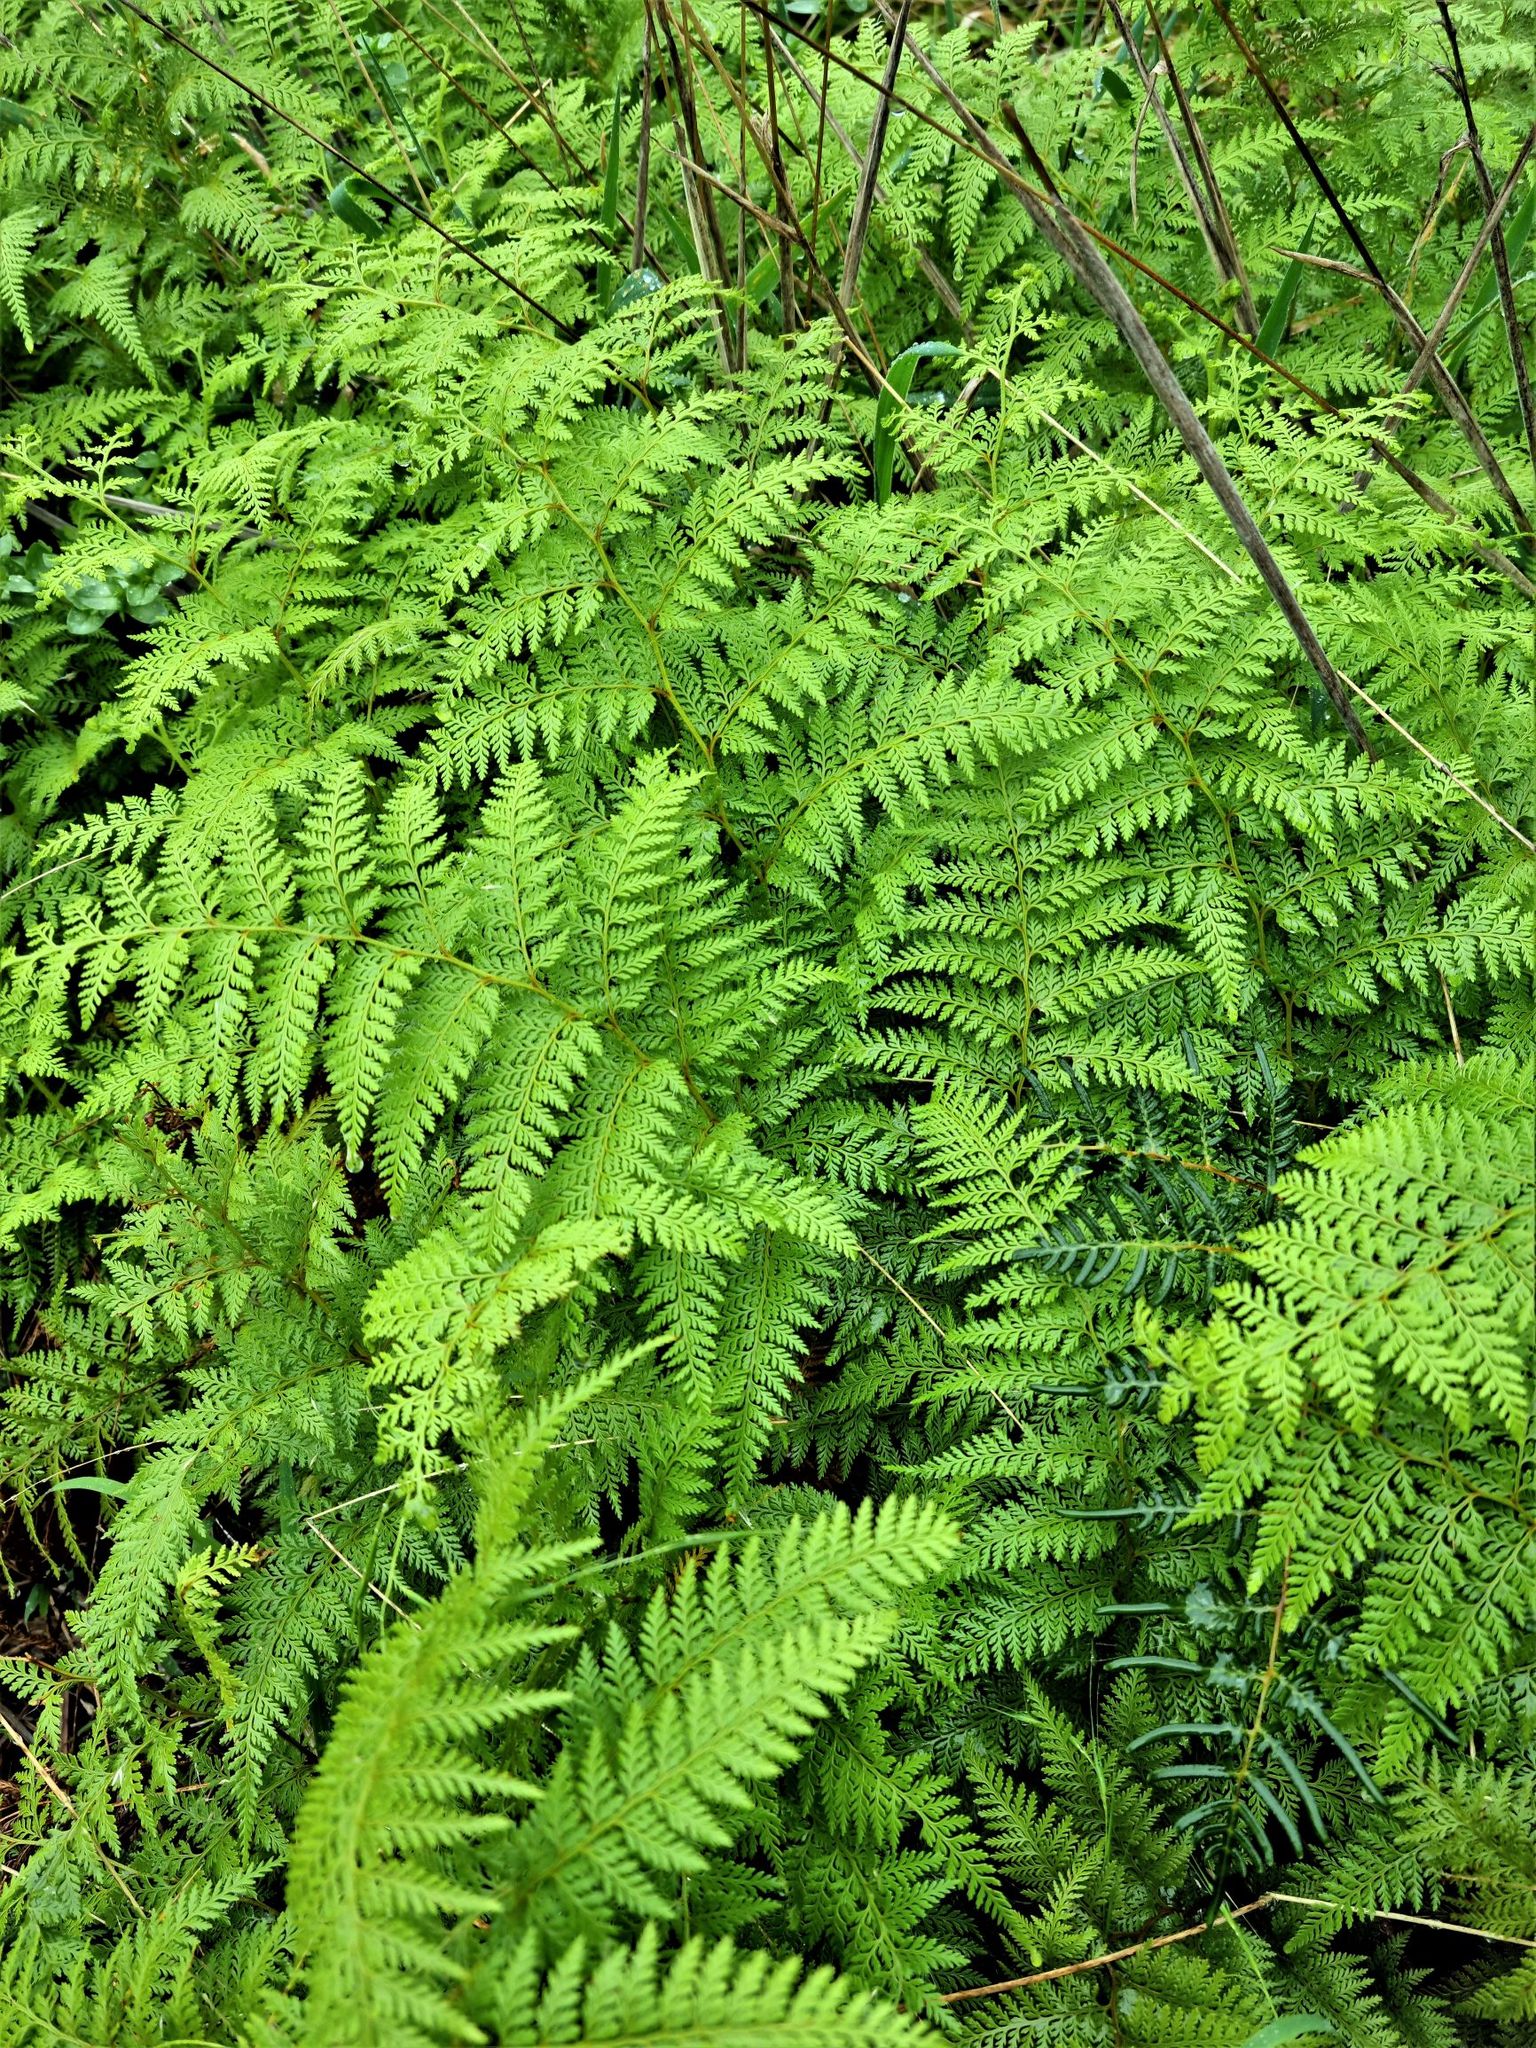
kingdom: Plantae
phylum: Tracheophyta
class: Polypodiopsida
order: Polypodiales
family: Dennstaedtiaceae
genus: Paesia
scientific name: Paesia scaberula
